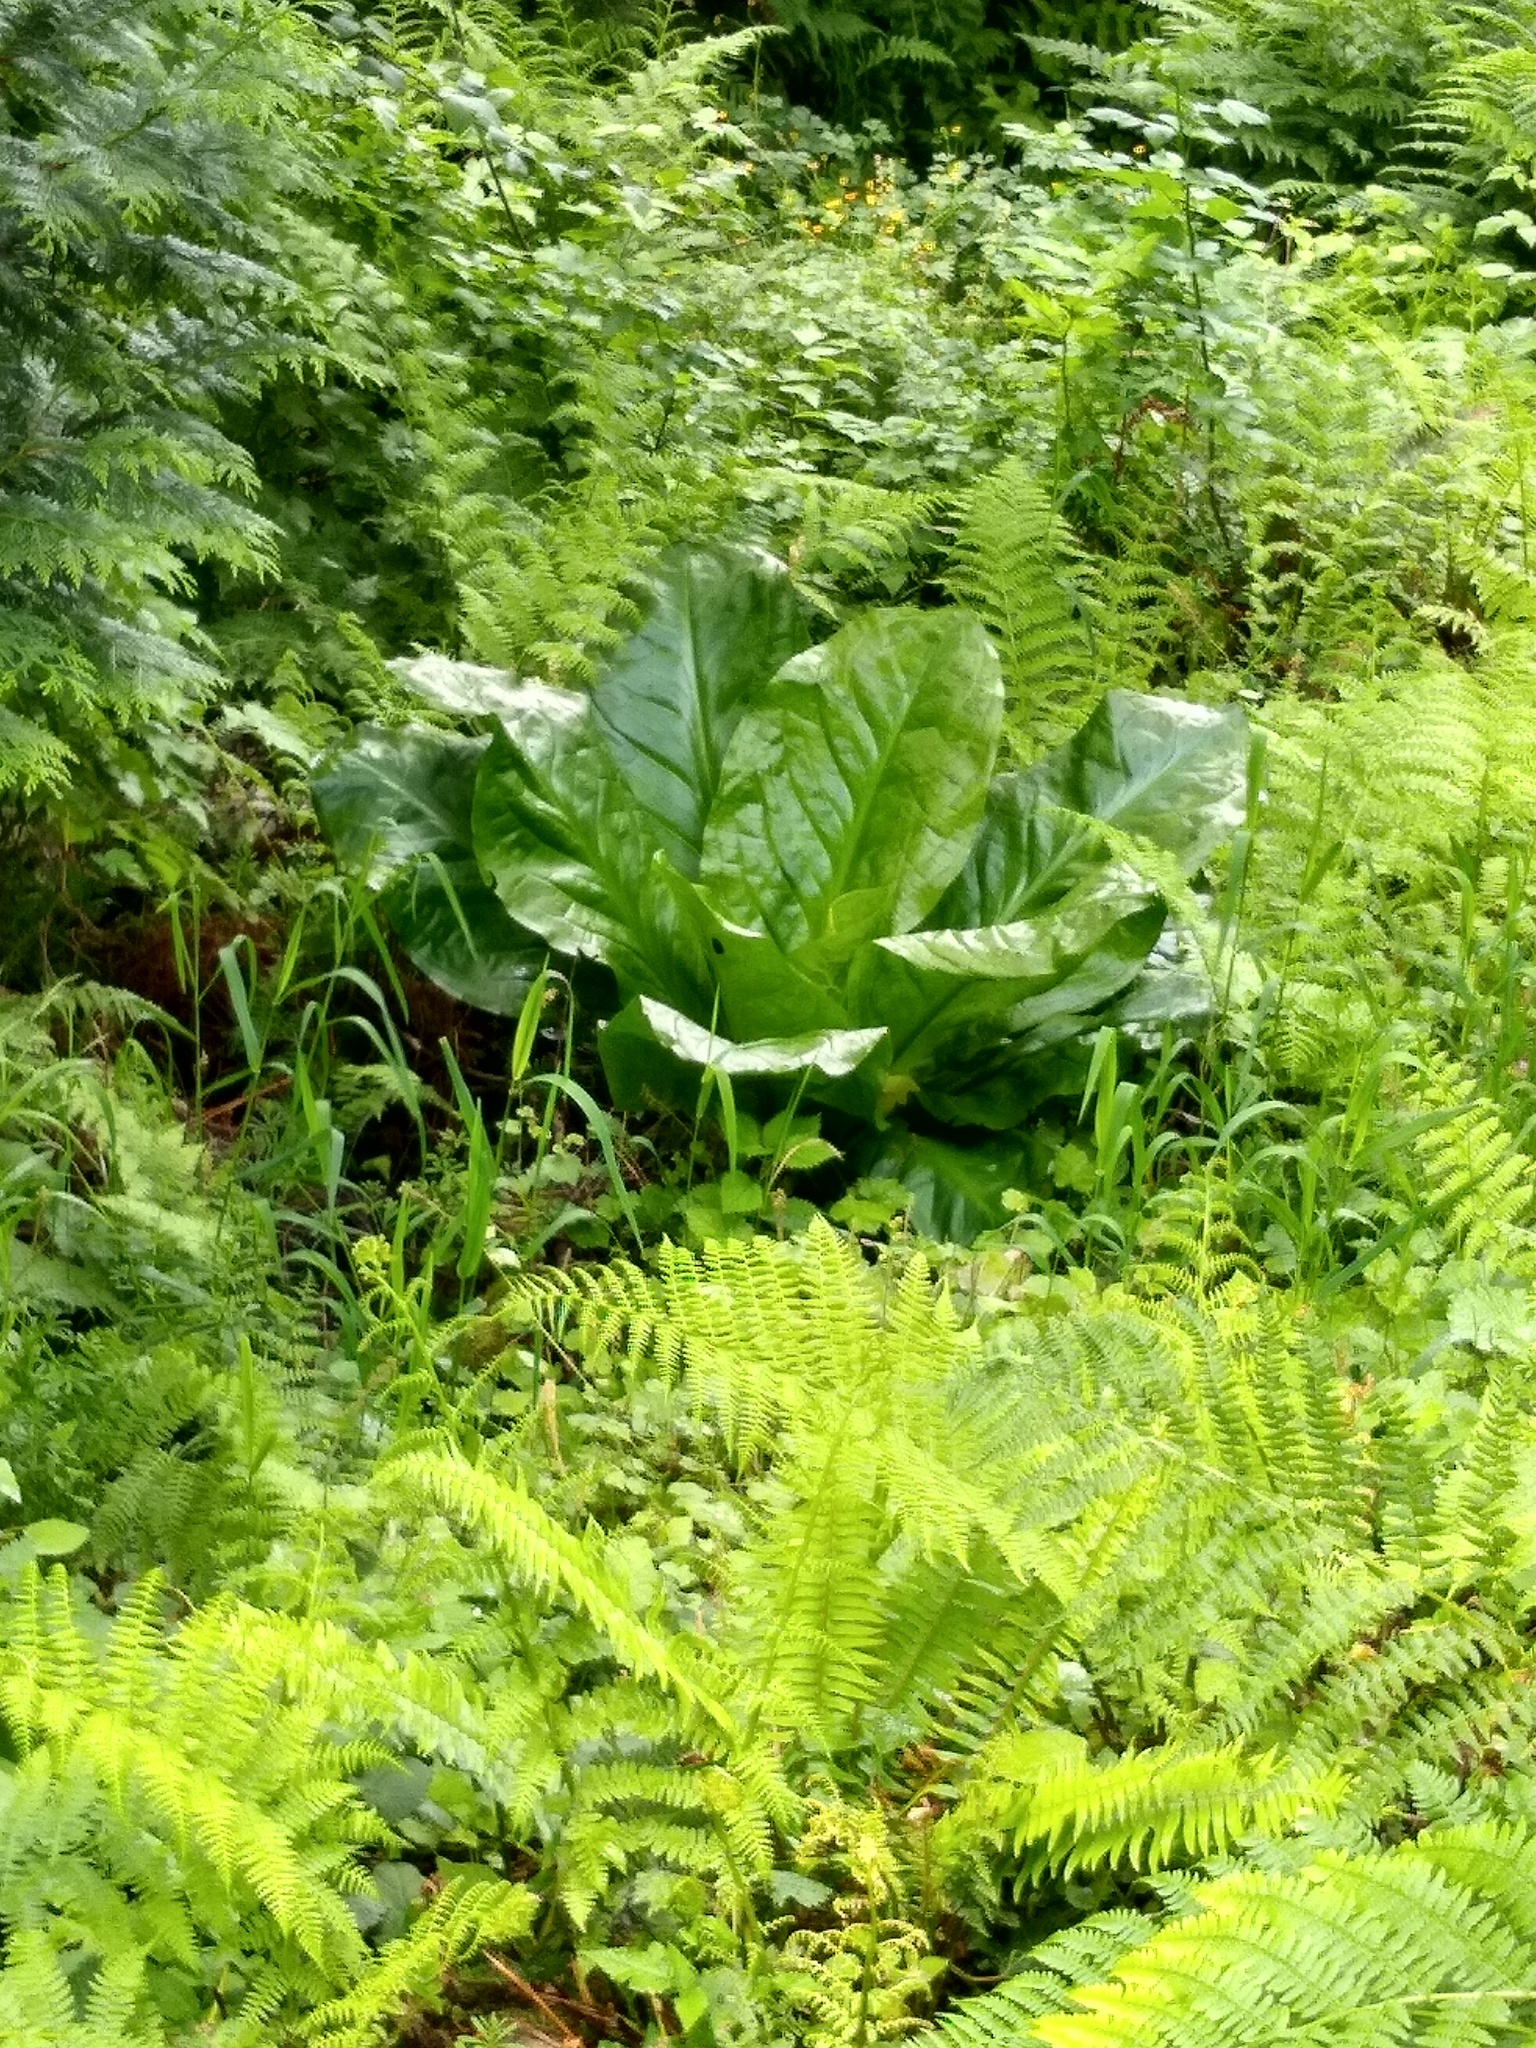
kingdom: Plantae
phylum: Tracheophyta
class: Liliopsida
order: Alismatales
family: Araceae
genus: Lysichiton
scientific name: Lysichiton americanus
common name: American skunk cabbage
